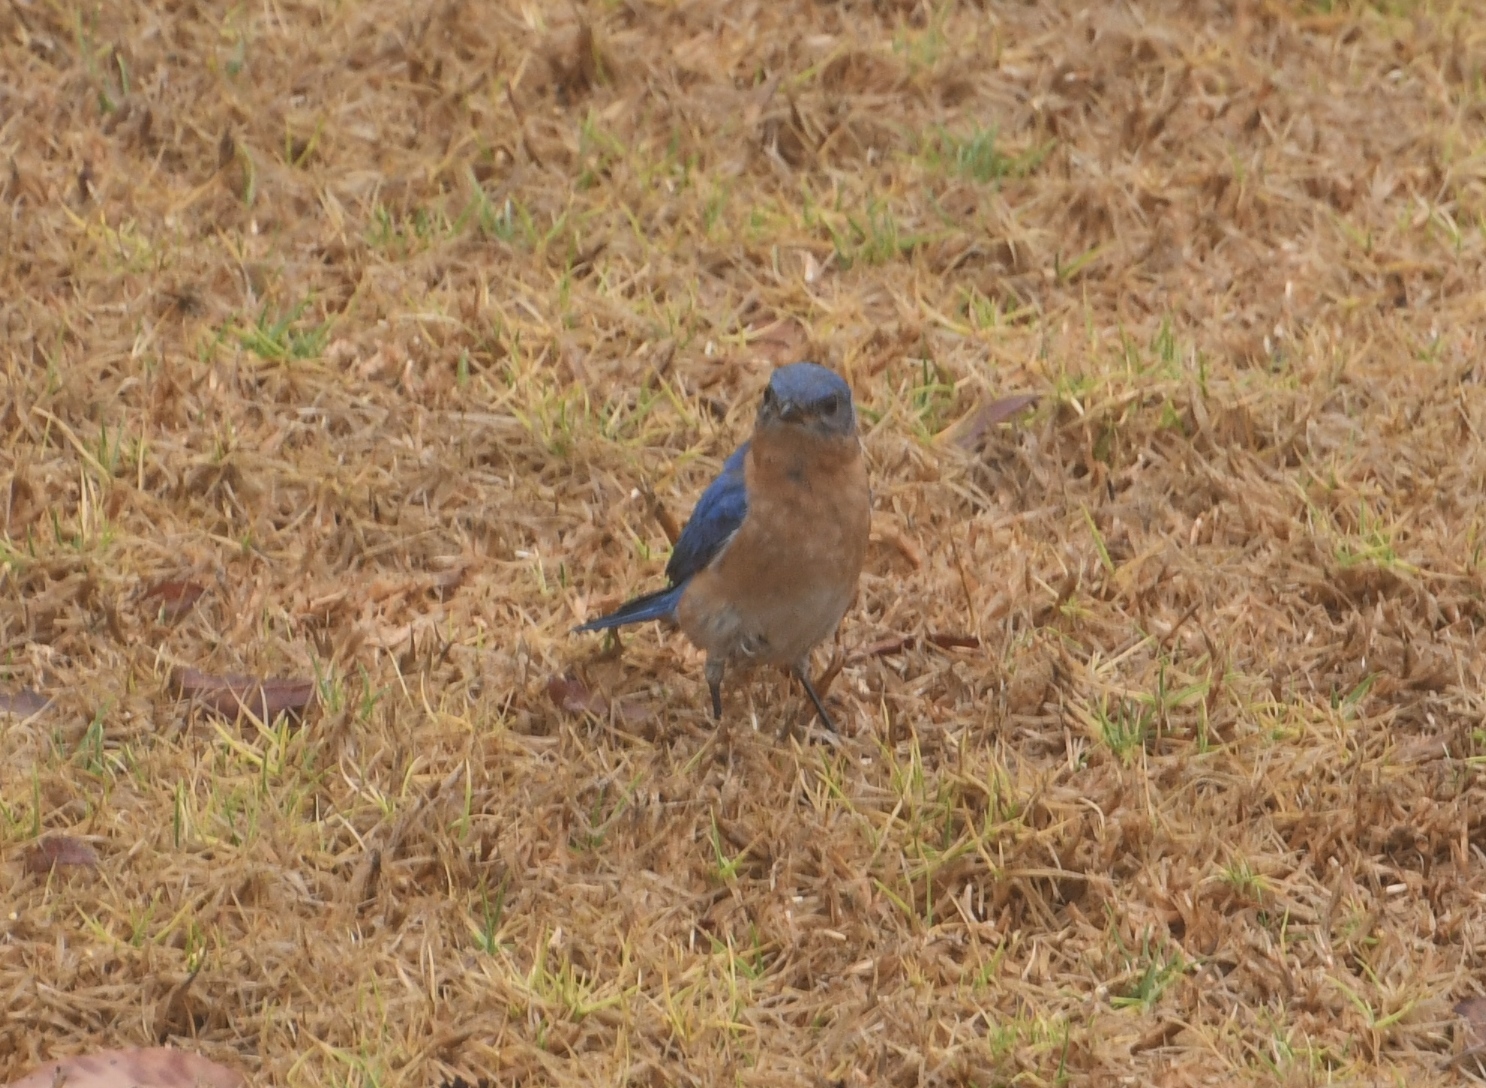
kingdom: Animalia
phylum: Chordata
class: Aves
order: Passeriformes
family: Turdidae
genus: Sialia
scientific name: Sialia sialis
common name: Eastern bluebird
